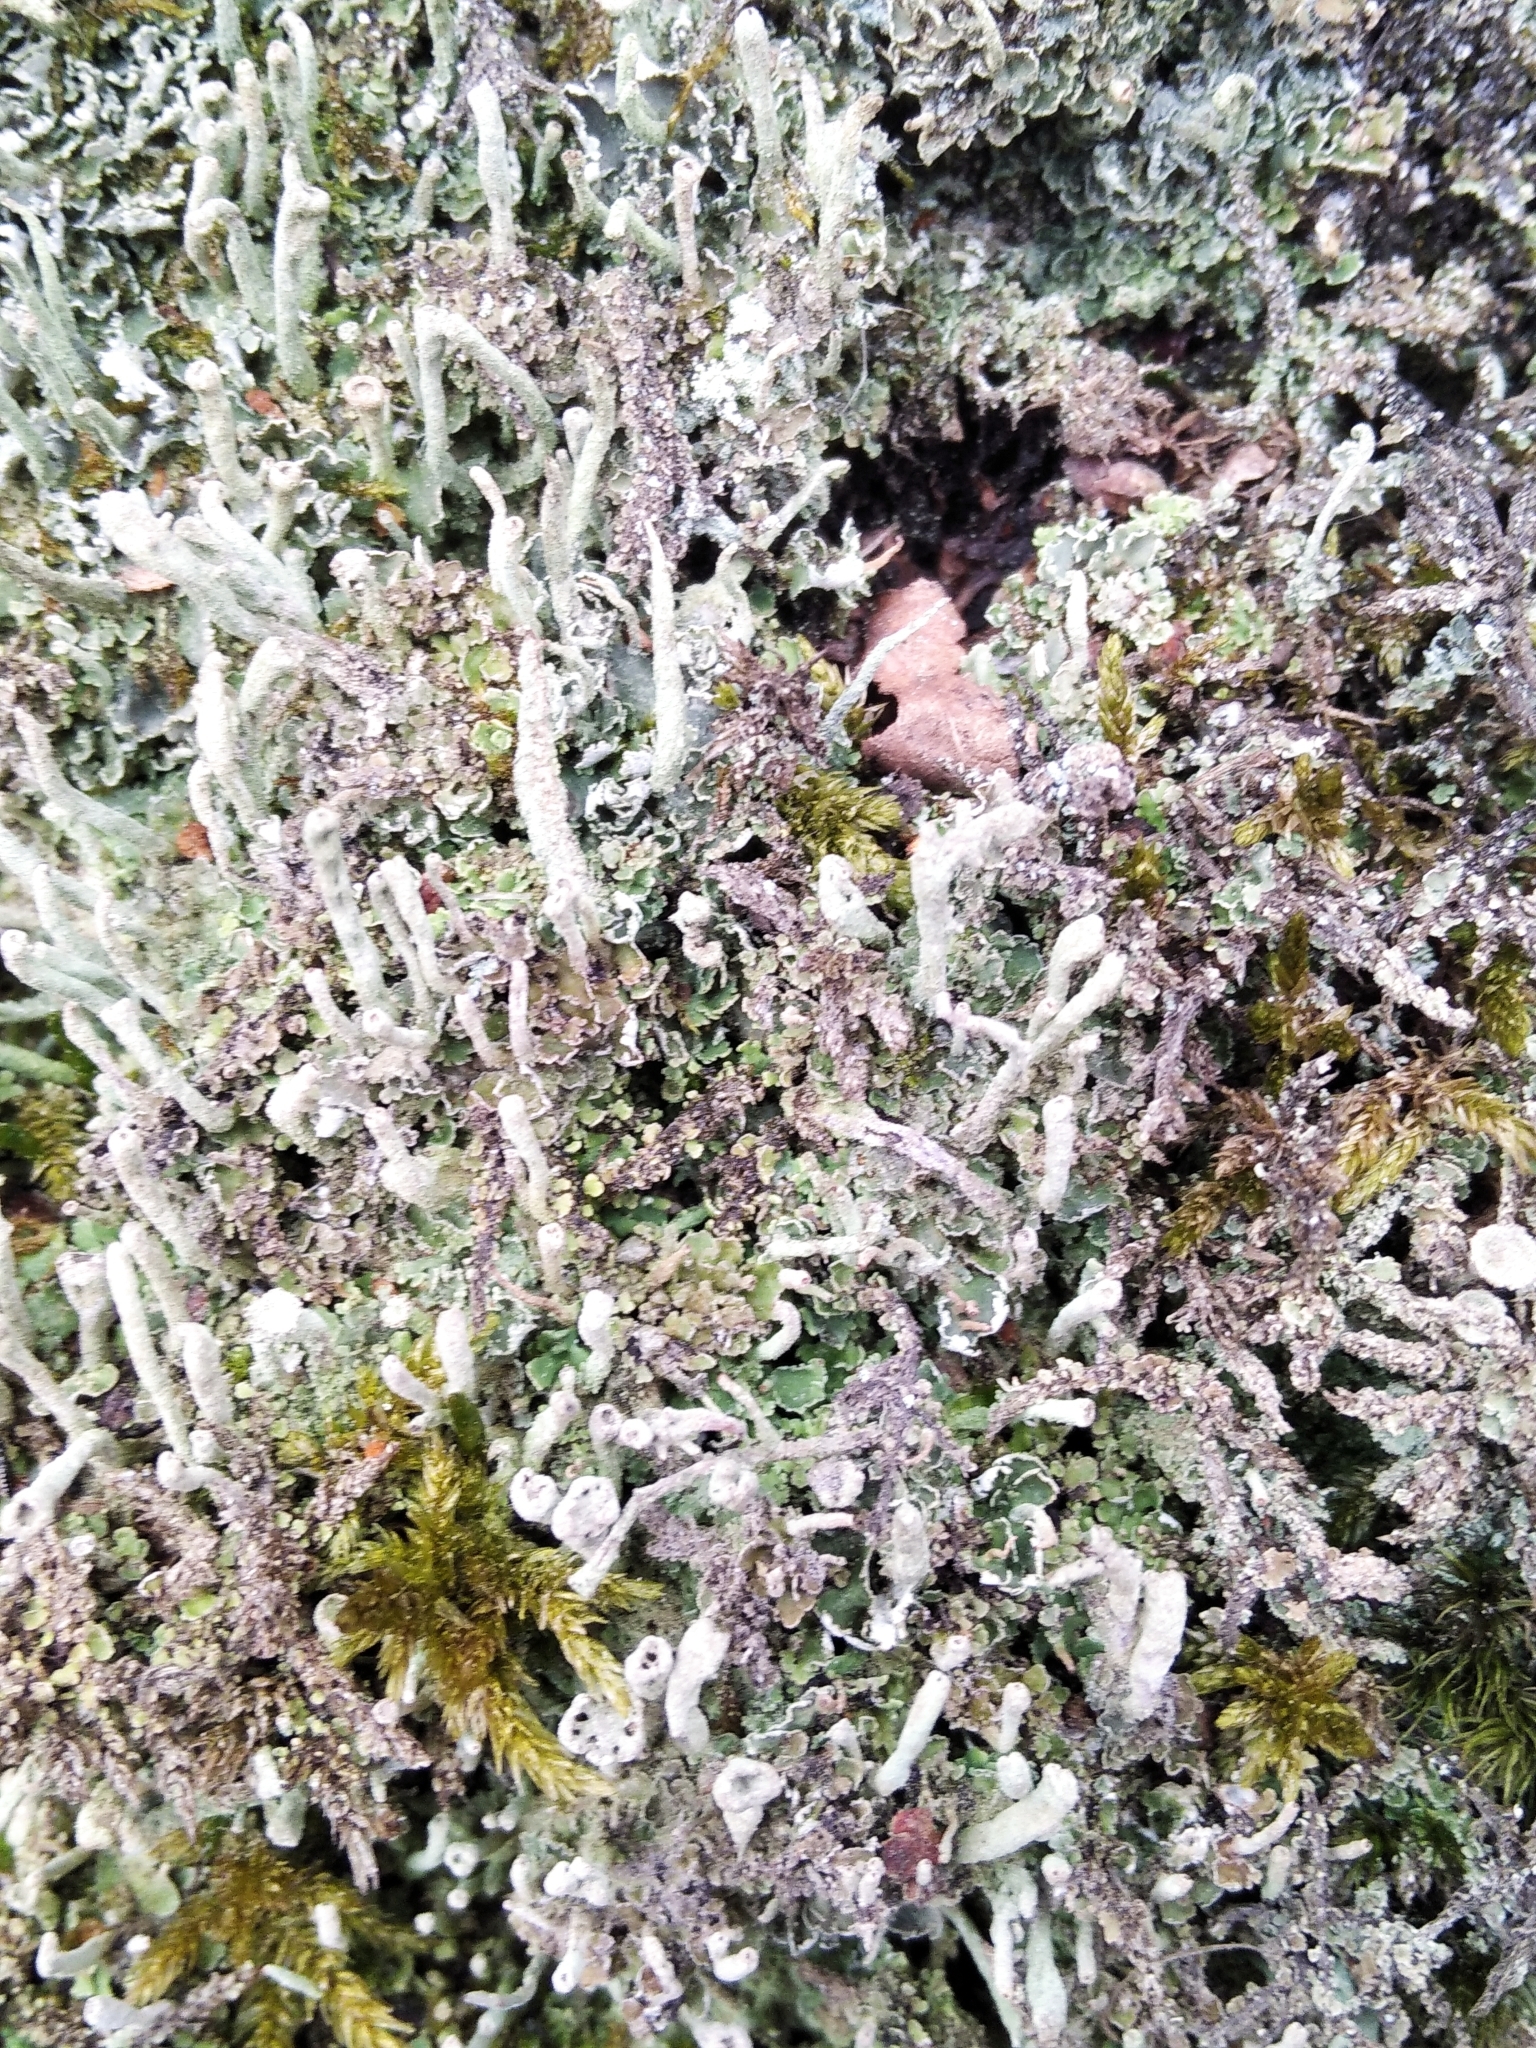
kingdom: Fungi
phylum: Ascomycota
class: Lecanoromycetes
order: Lecanorales
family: Cladoniaceae
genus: Cladonia
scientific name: Cladonia coniocraea
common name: Common powderhorn
